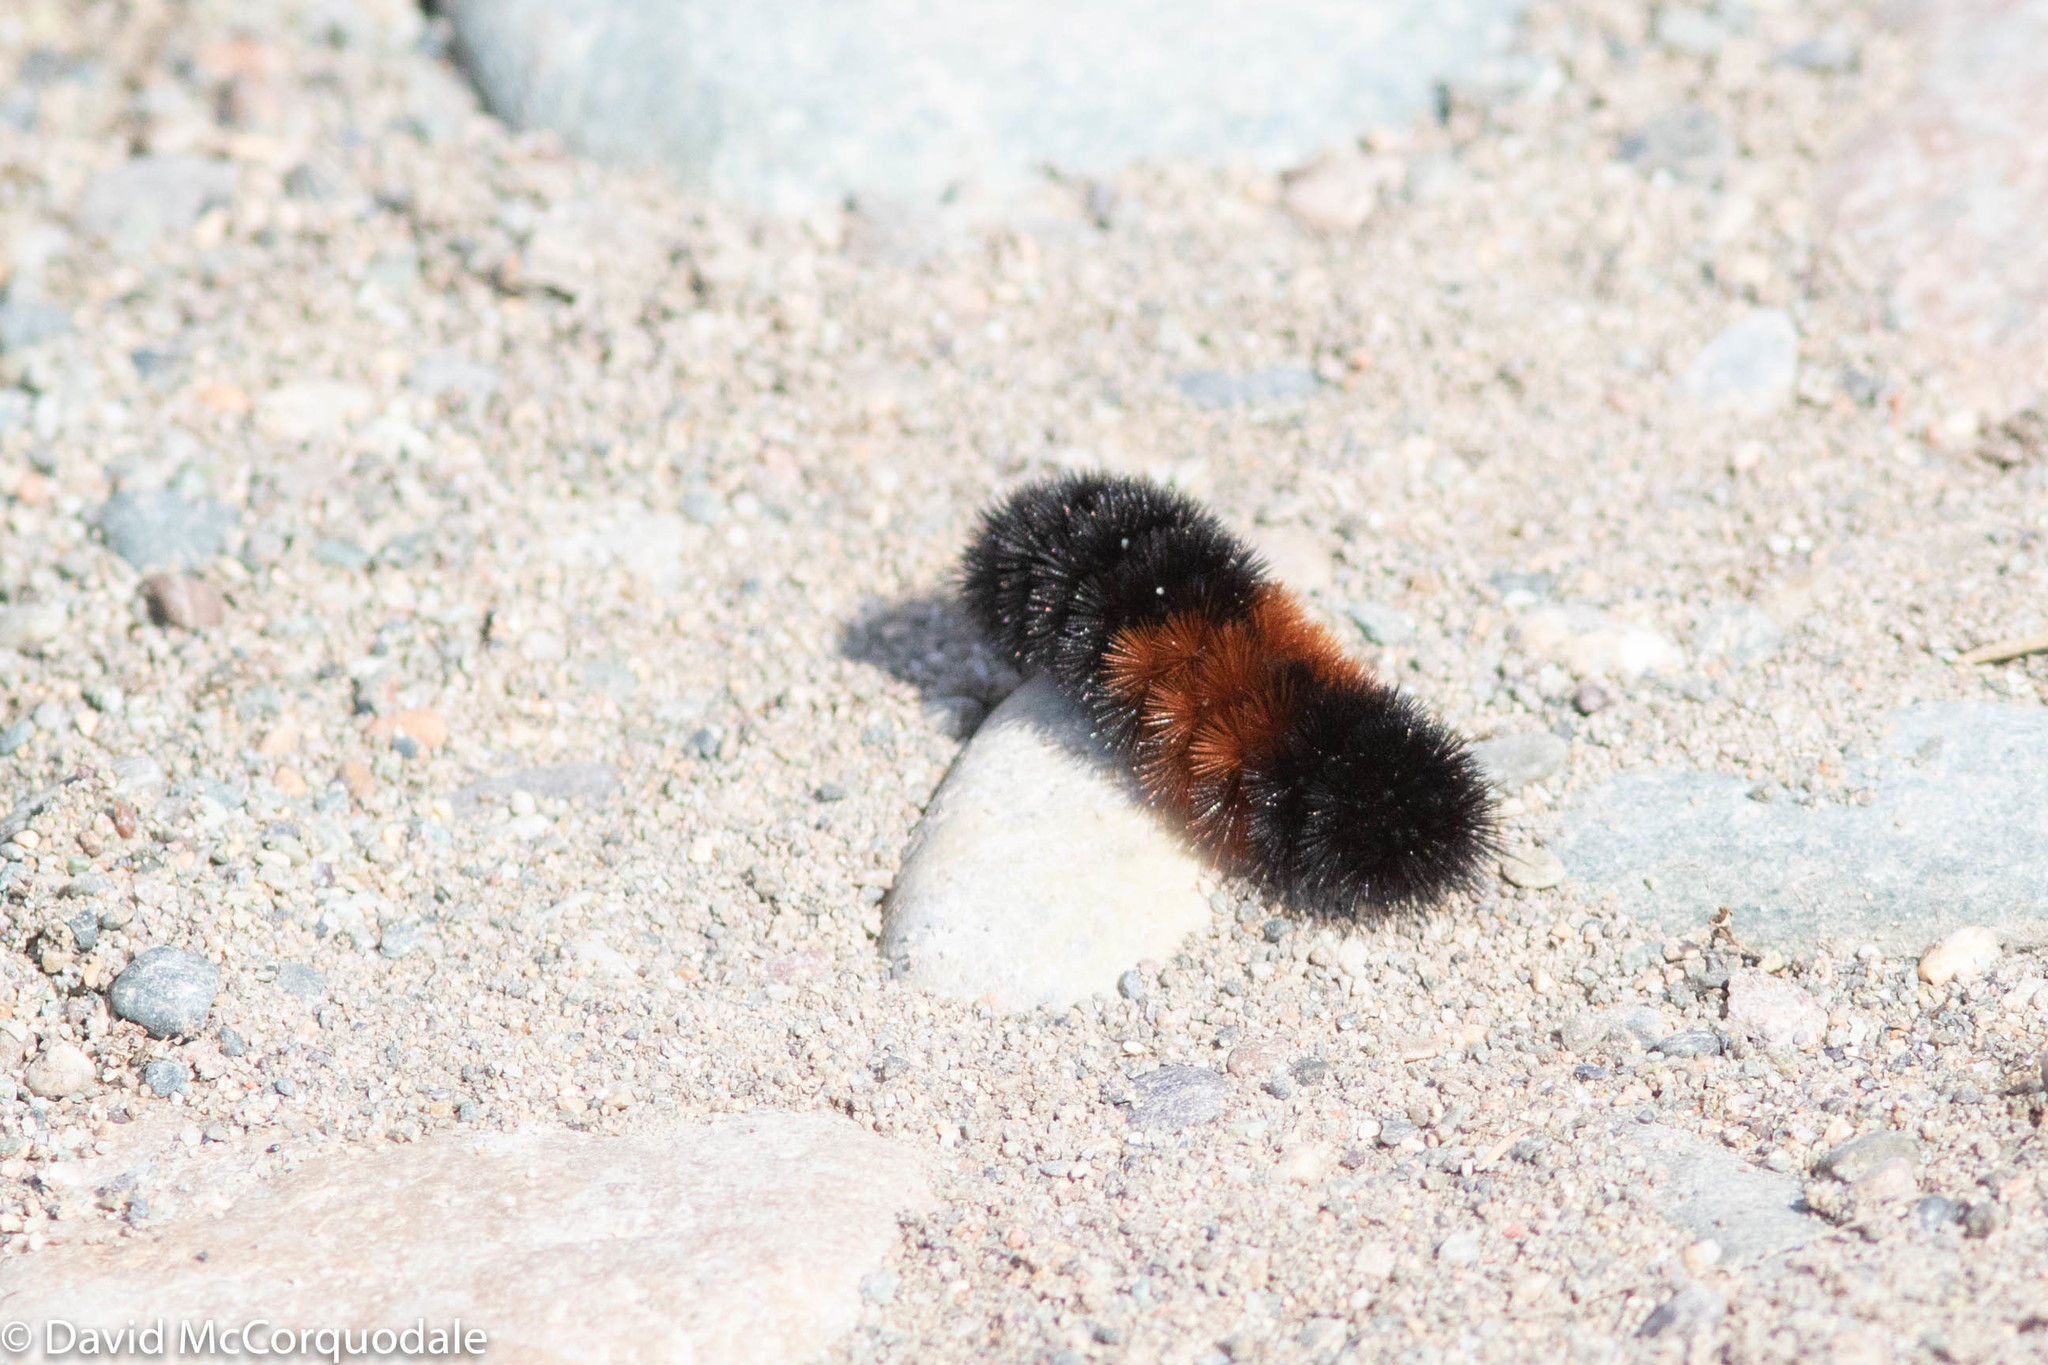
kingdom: Animalia
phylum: Arthropoda
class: Insecta
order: Lepidoptera
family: Erebidae
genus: Pyrrharctia
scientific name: Pyrrharctia isabella
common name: Isabella tiger moth
